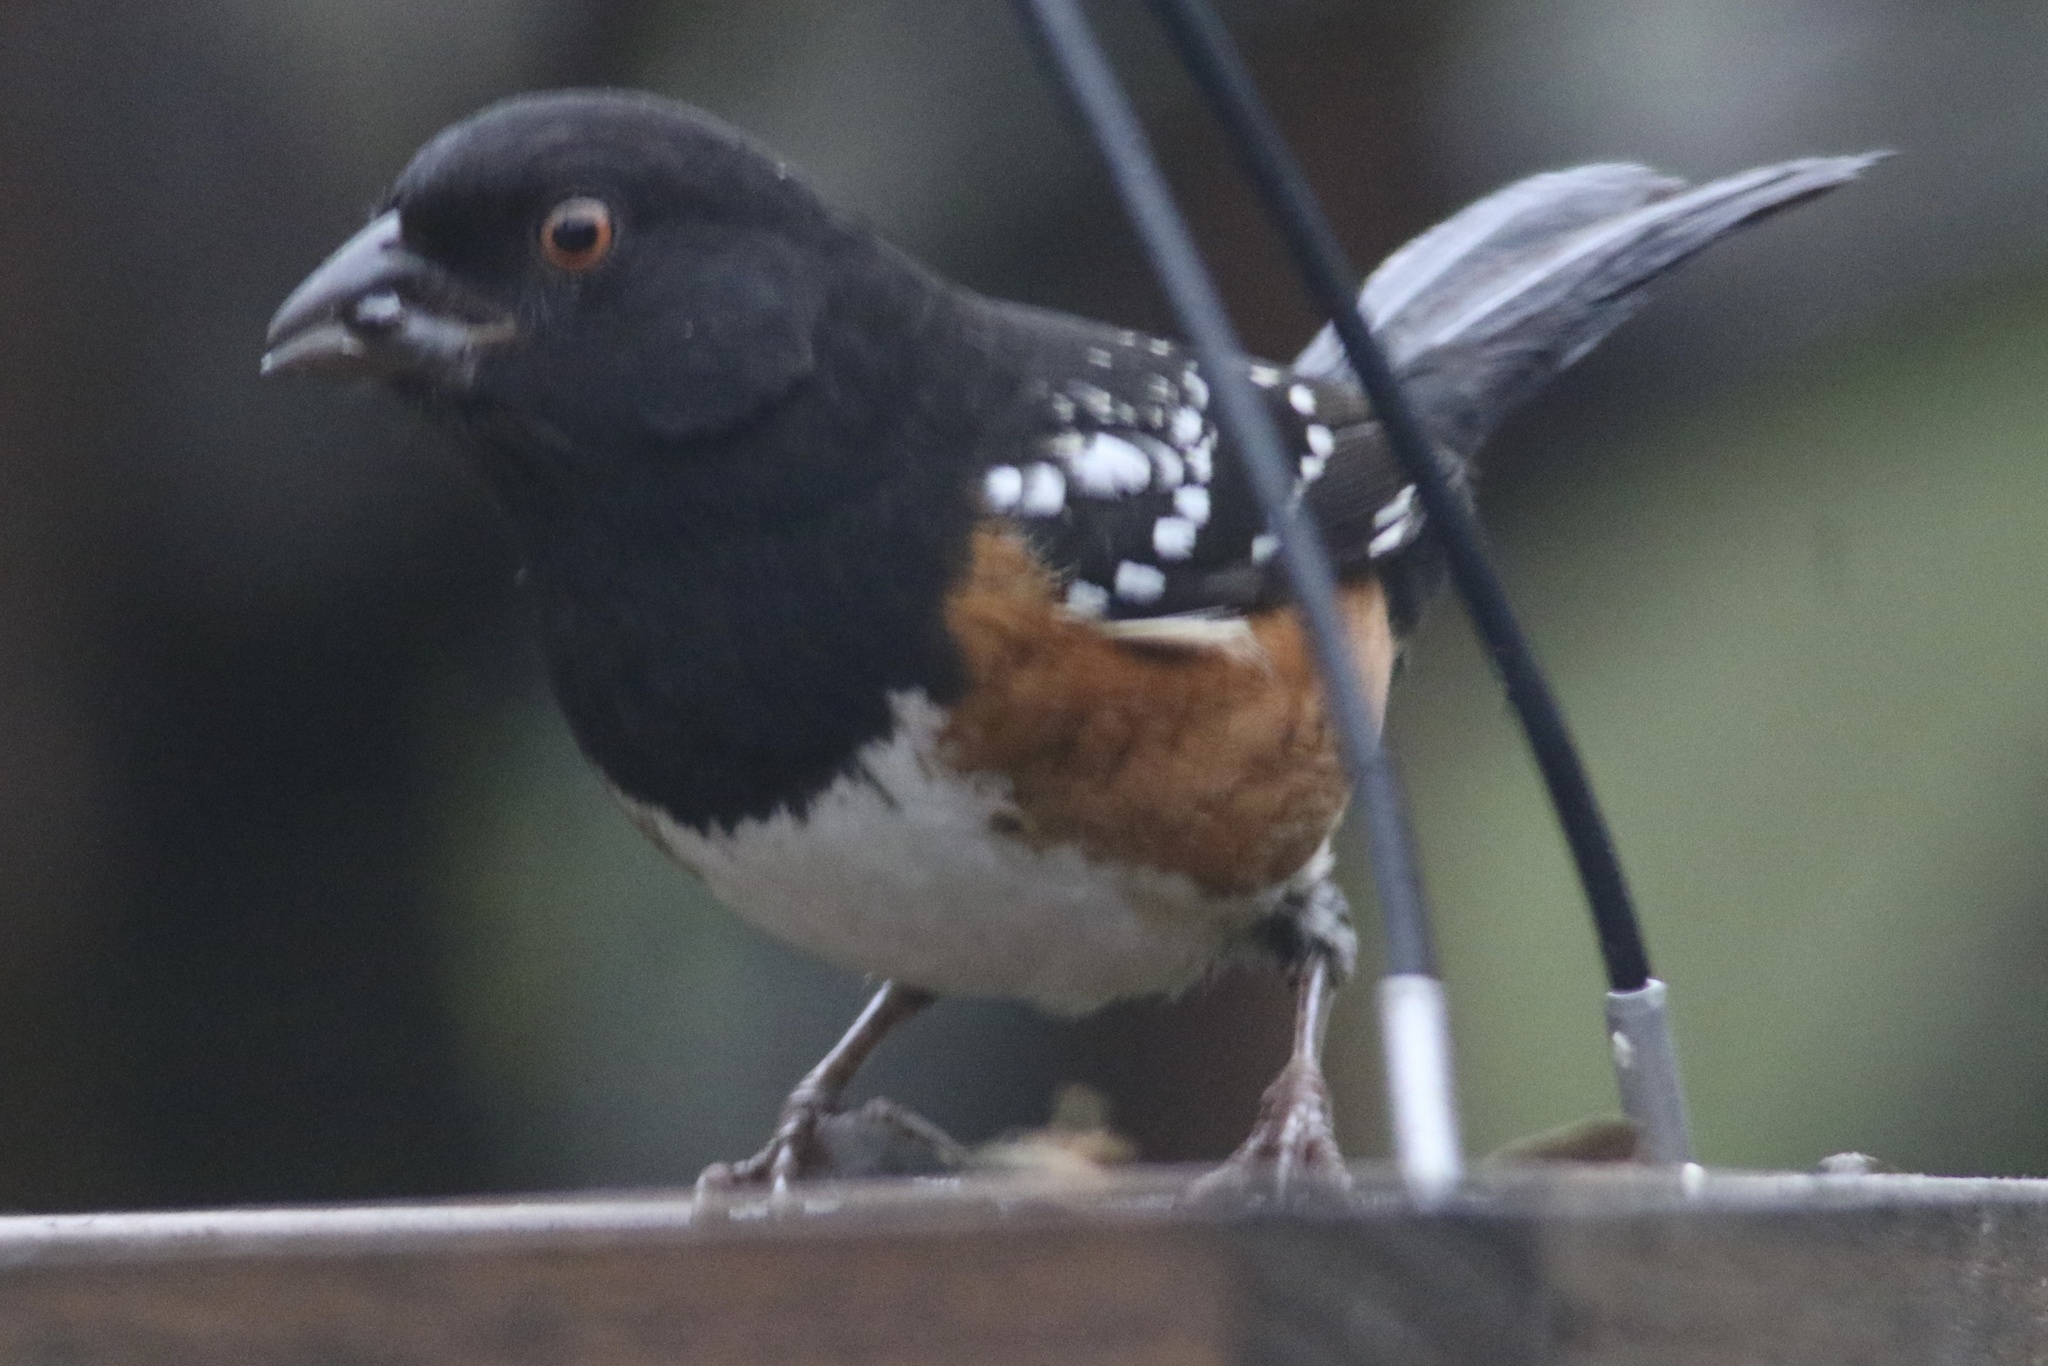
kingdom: Animalia
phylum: Chordata
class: Aves
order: Passeriformes
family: Passerellidae
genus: Pipilo
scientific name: Pipilo maculatus
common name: Spotted towhee
